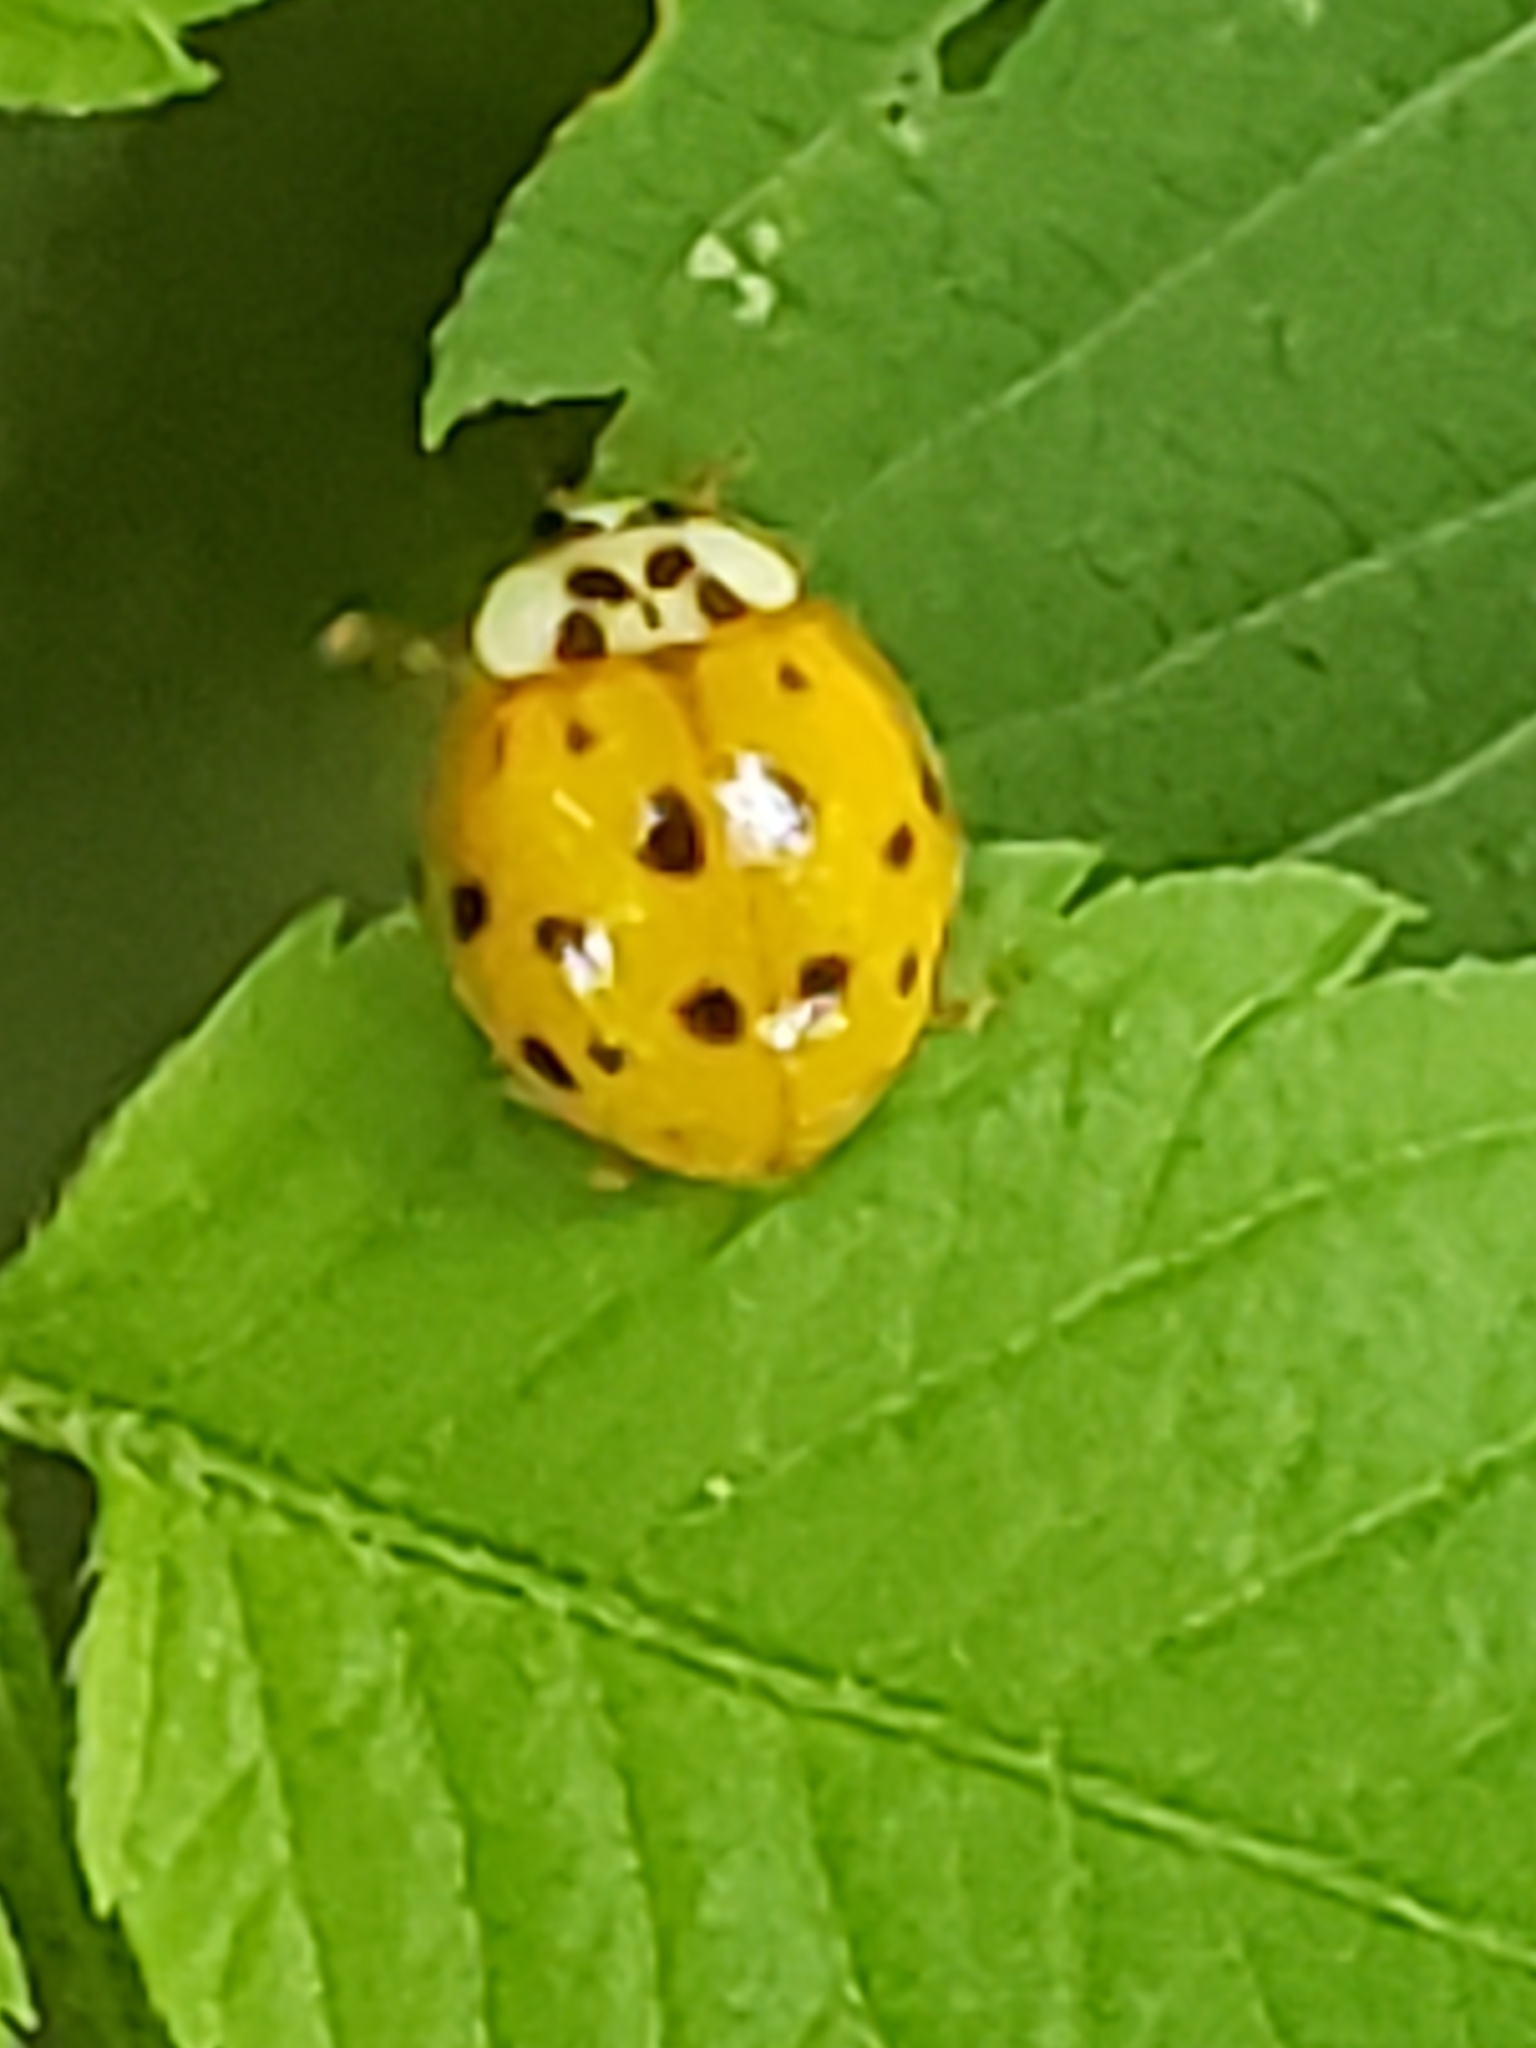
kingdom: Animalia
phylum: Arthropoda
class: Insecta
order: Coleoptera
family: Coccinellidae
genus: Harmonia
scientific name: Harmonia axyridis
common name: Harlequin ladybird
